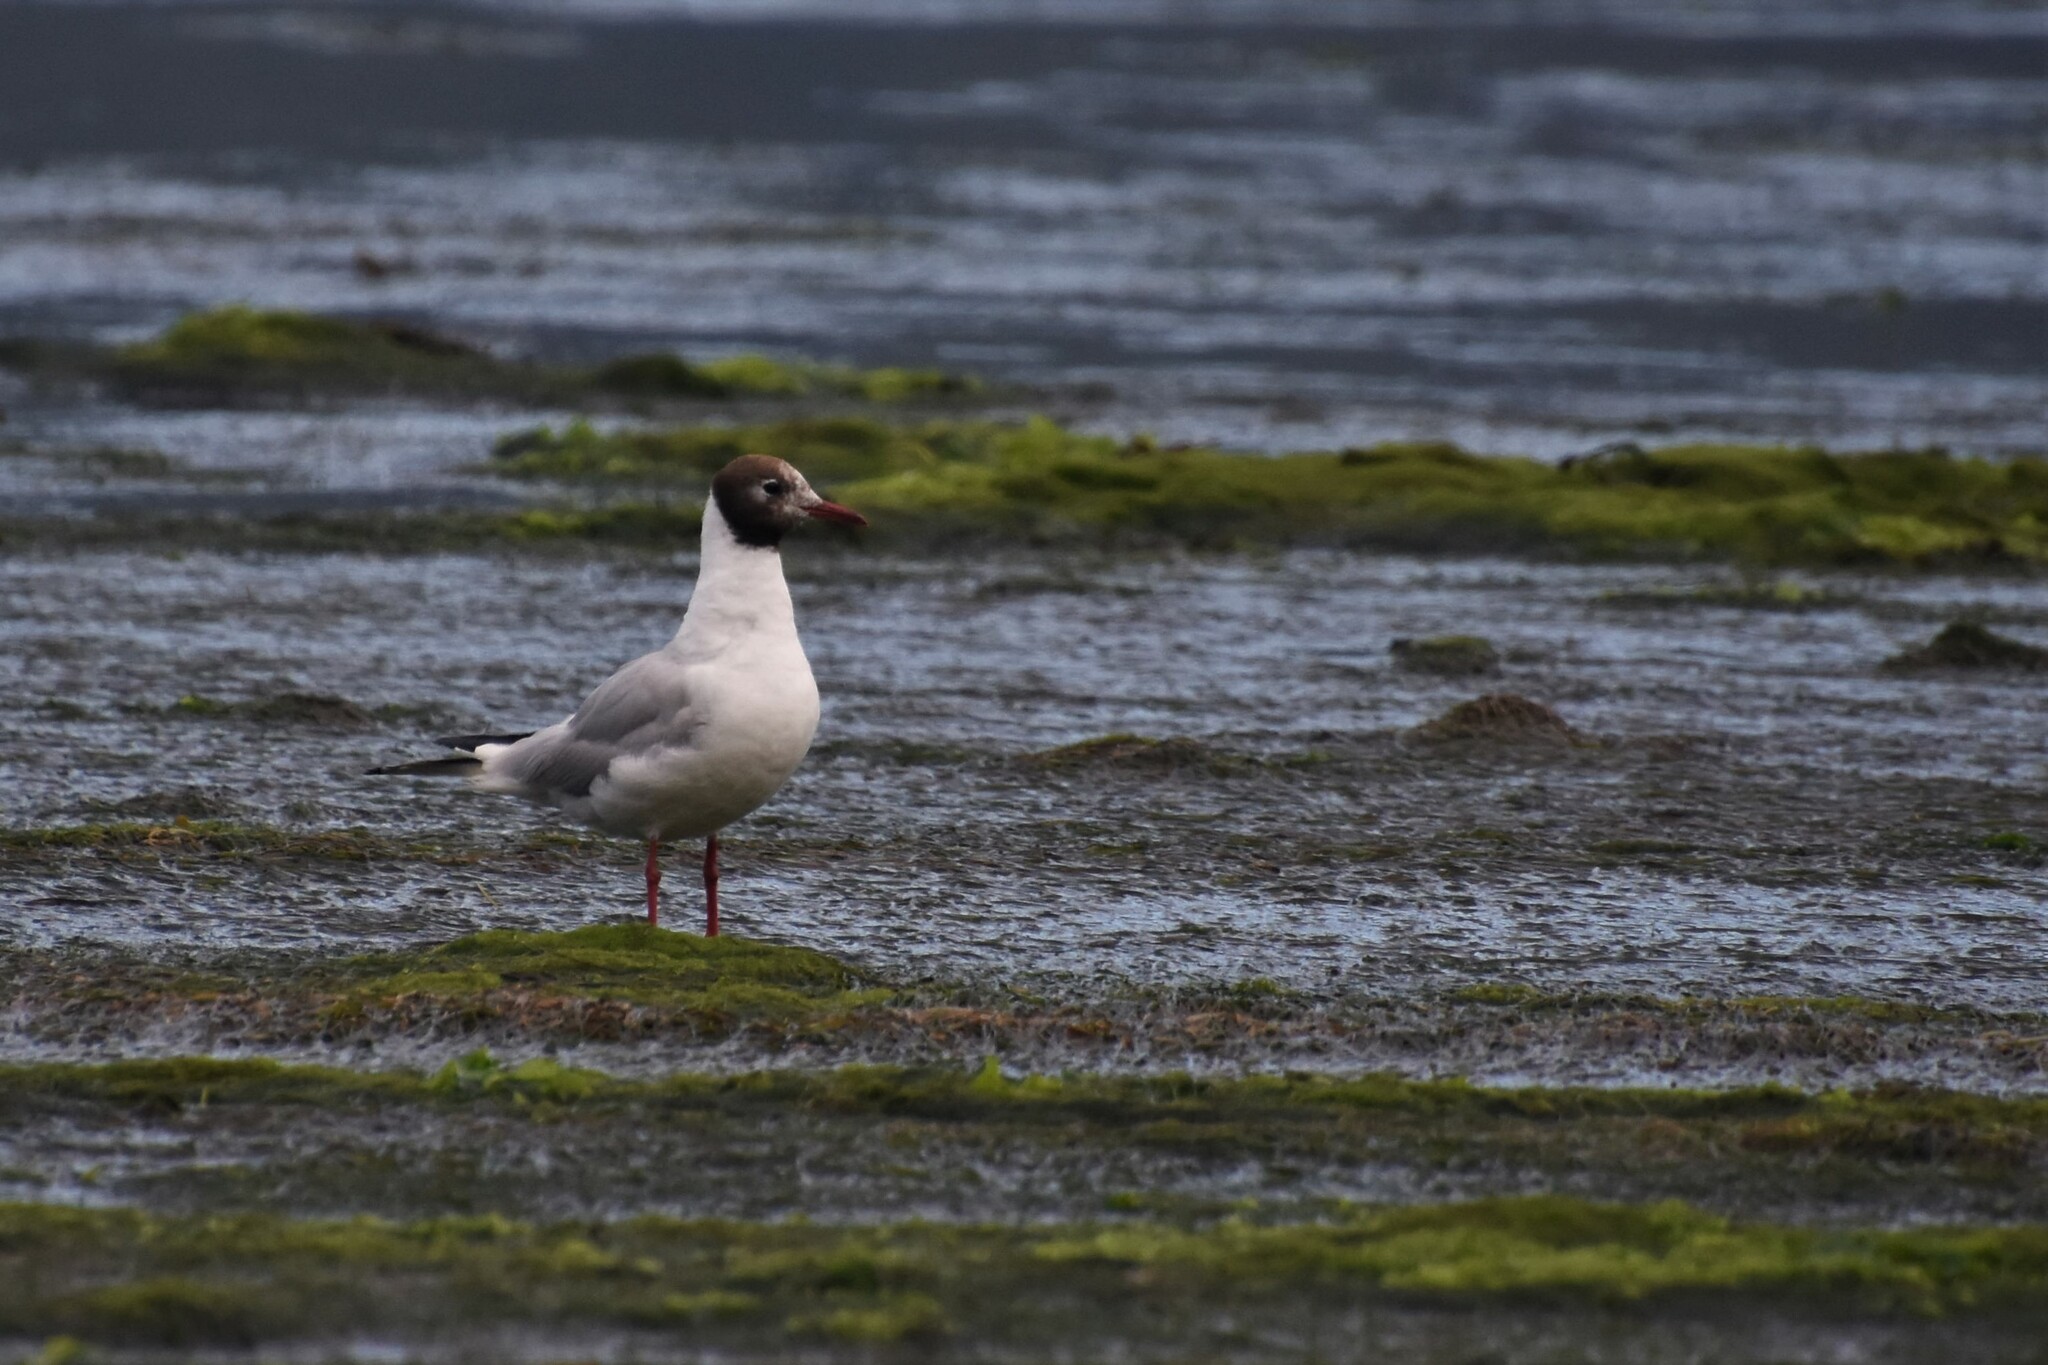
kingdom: Animalia
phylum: Chordata
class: Aves
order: Charadriiformes
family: Laridae
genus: Chroicocephalus
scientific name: Chroicocephalus ridibundus
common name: Black-headed gull
